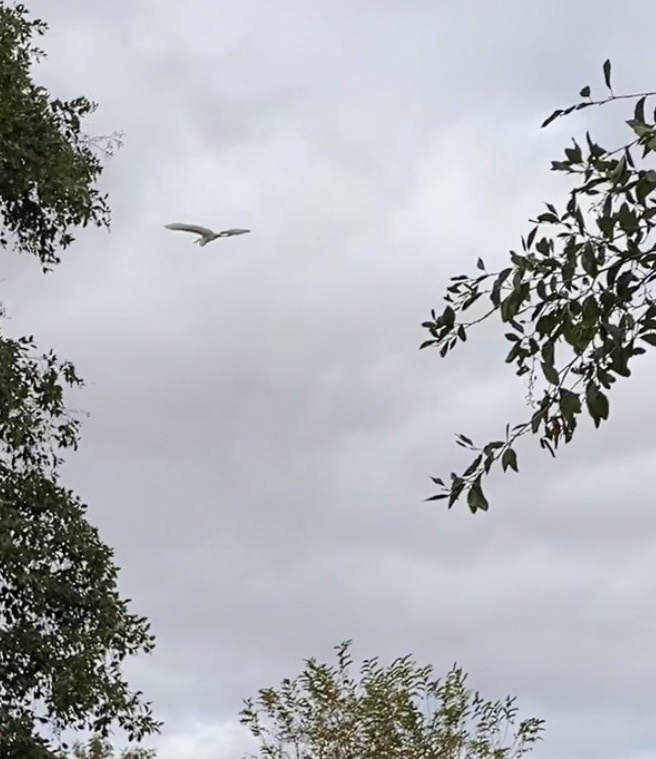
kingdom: Animalia
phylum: Chordata
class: Aves
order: Pelecaniformes
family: Ardeidae
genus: Ardea
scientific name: Ardea alba
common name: Great egret
